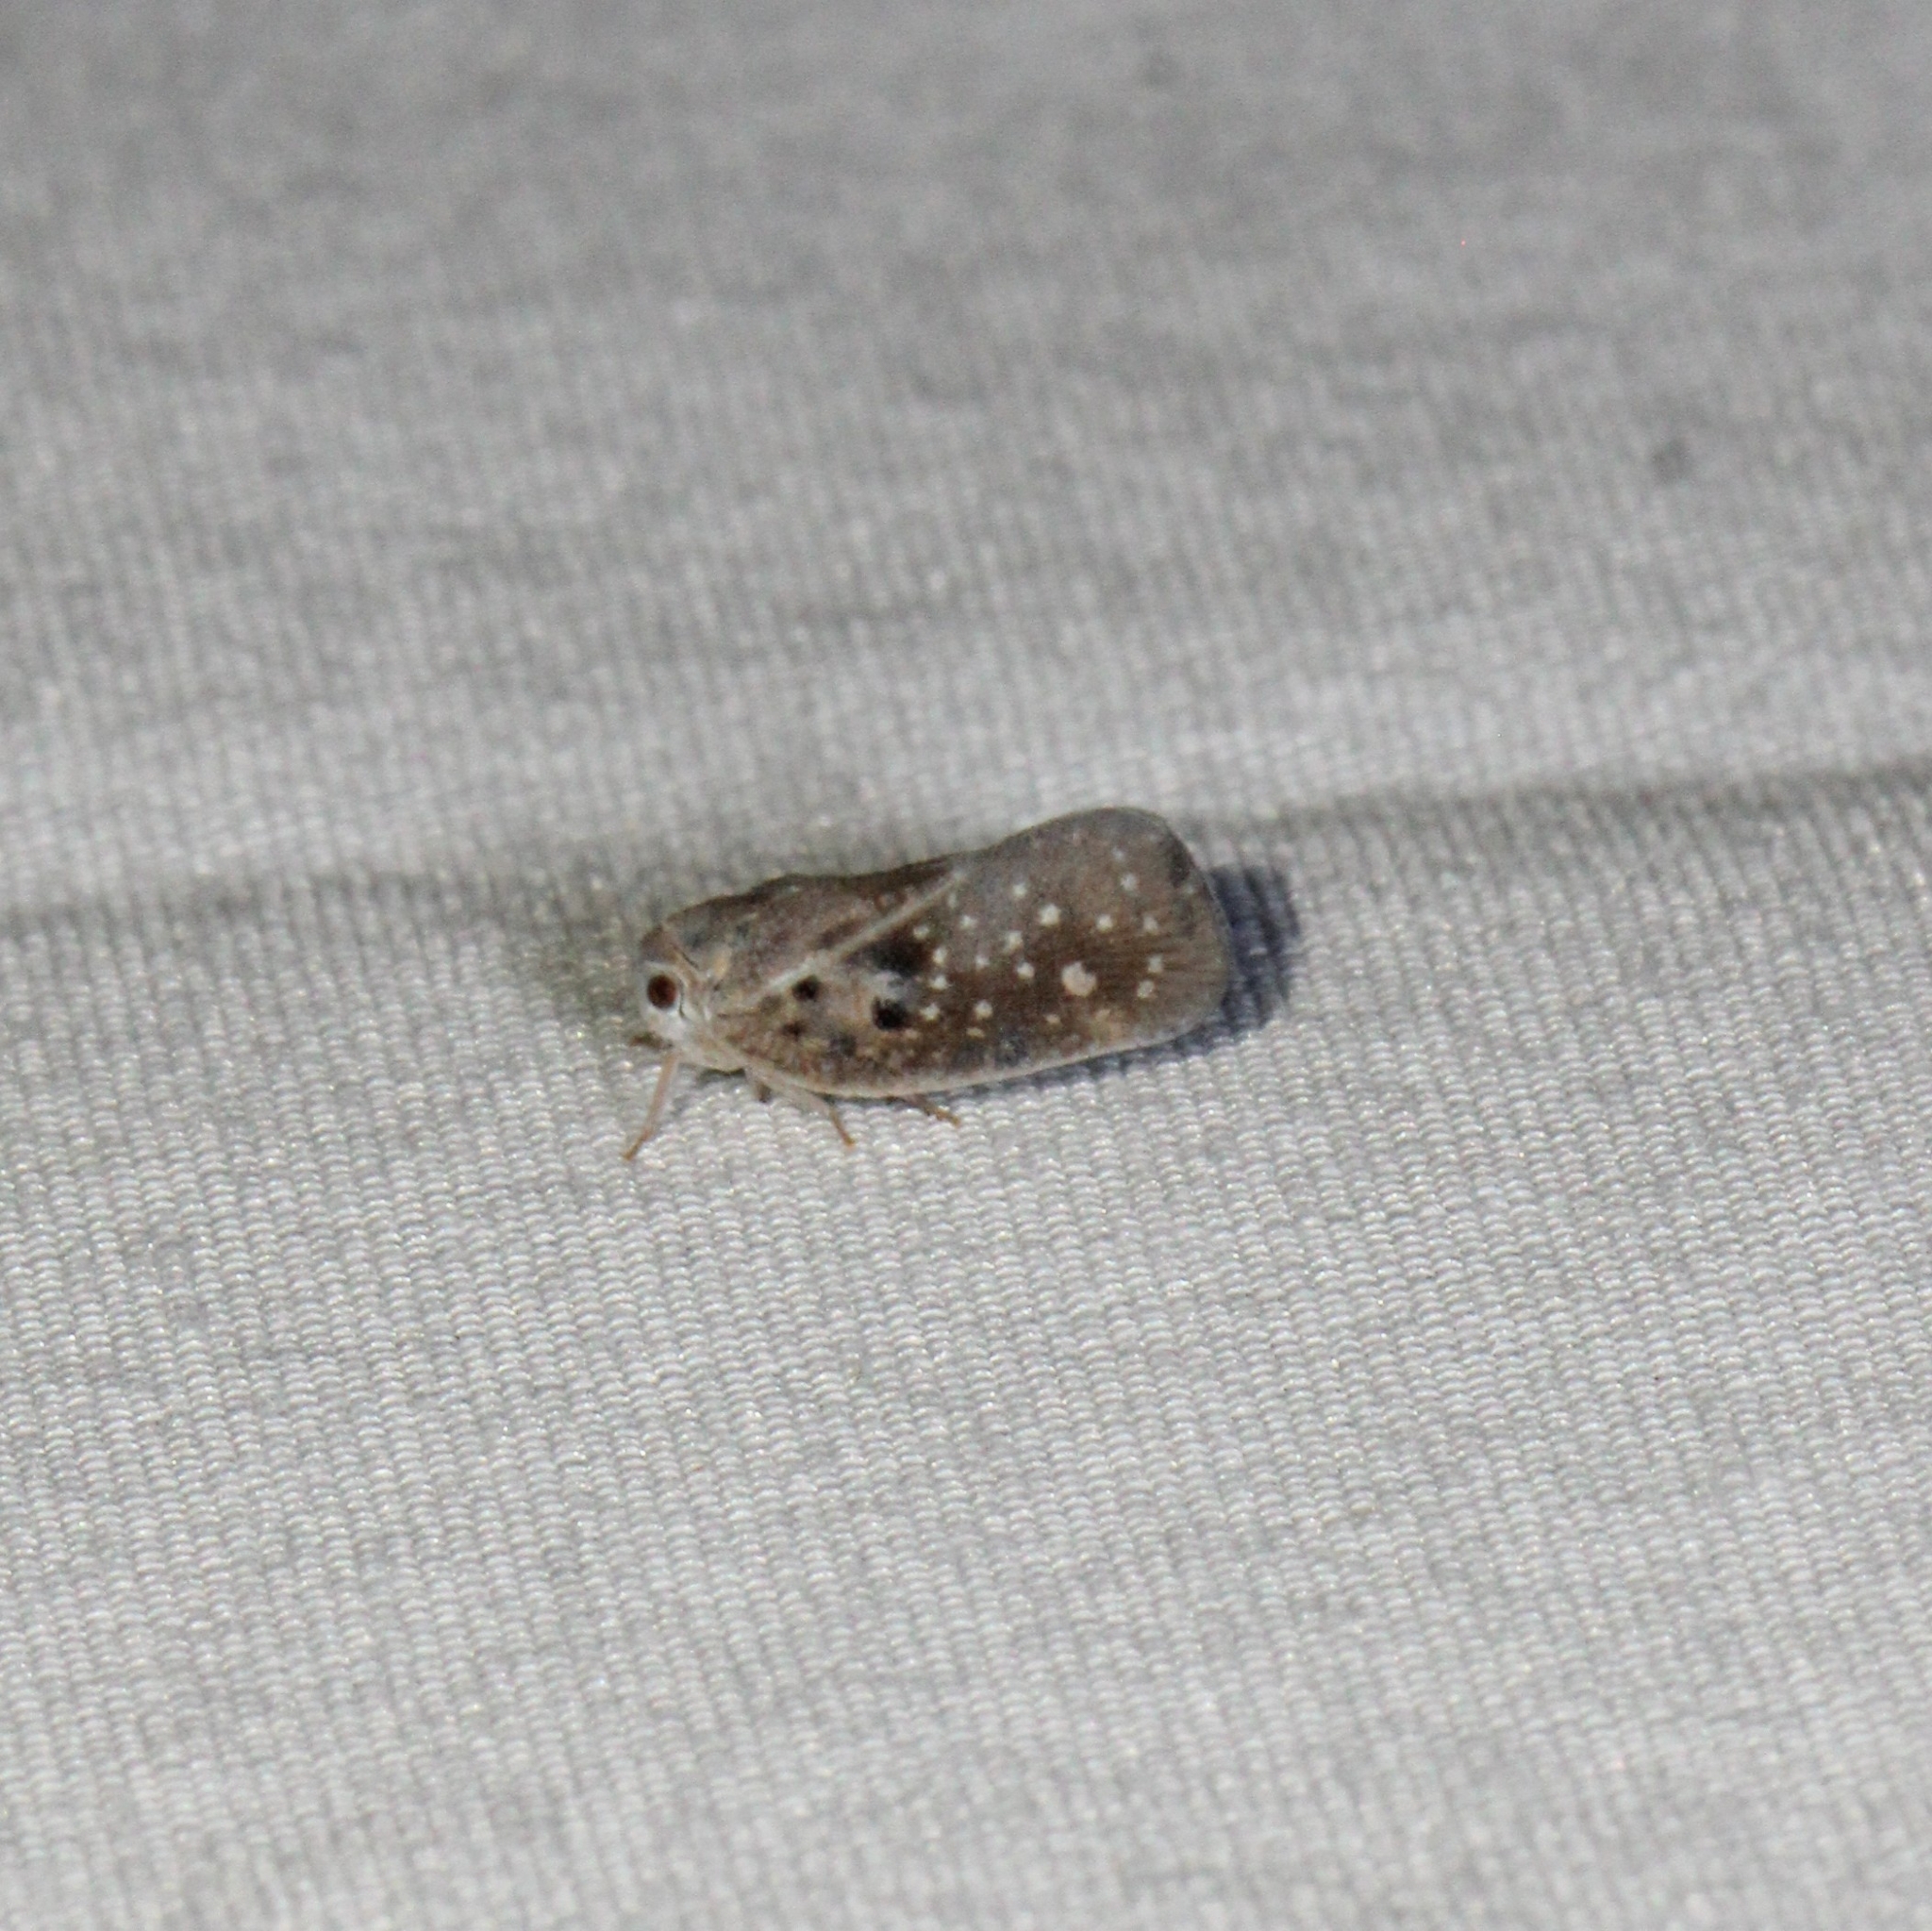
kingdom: Animalia
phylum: Arthropoda
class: Insecta
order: Hemiptera
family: Flatidae
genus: Metcalfa
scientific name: Metcalfa pruinosa
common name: Citrus flatid planthopper
